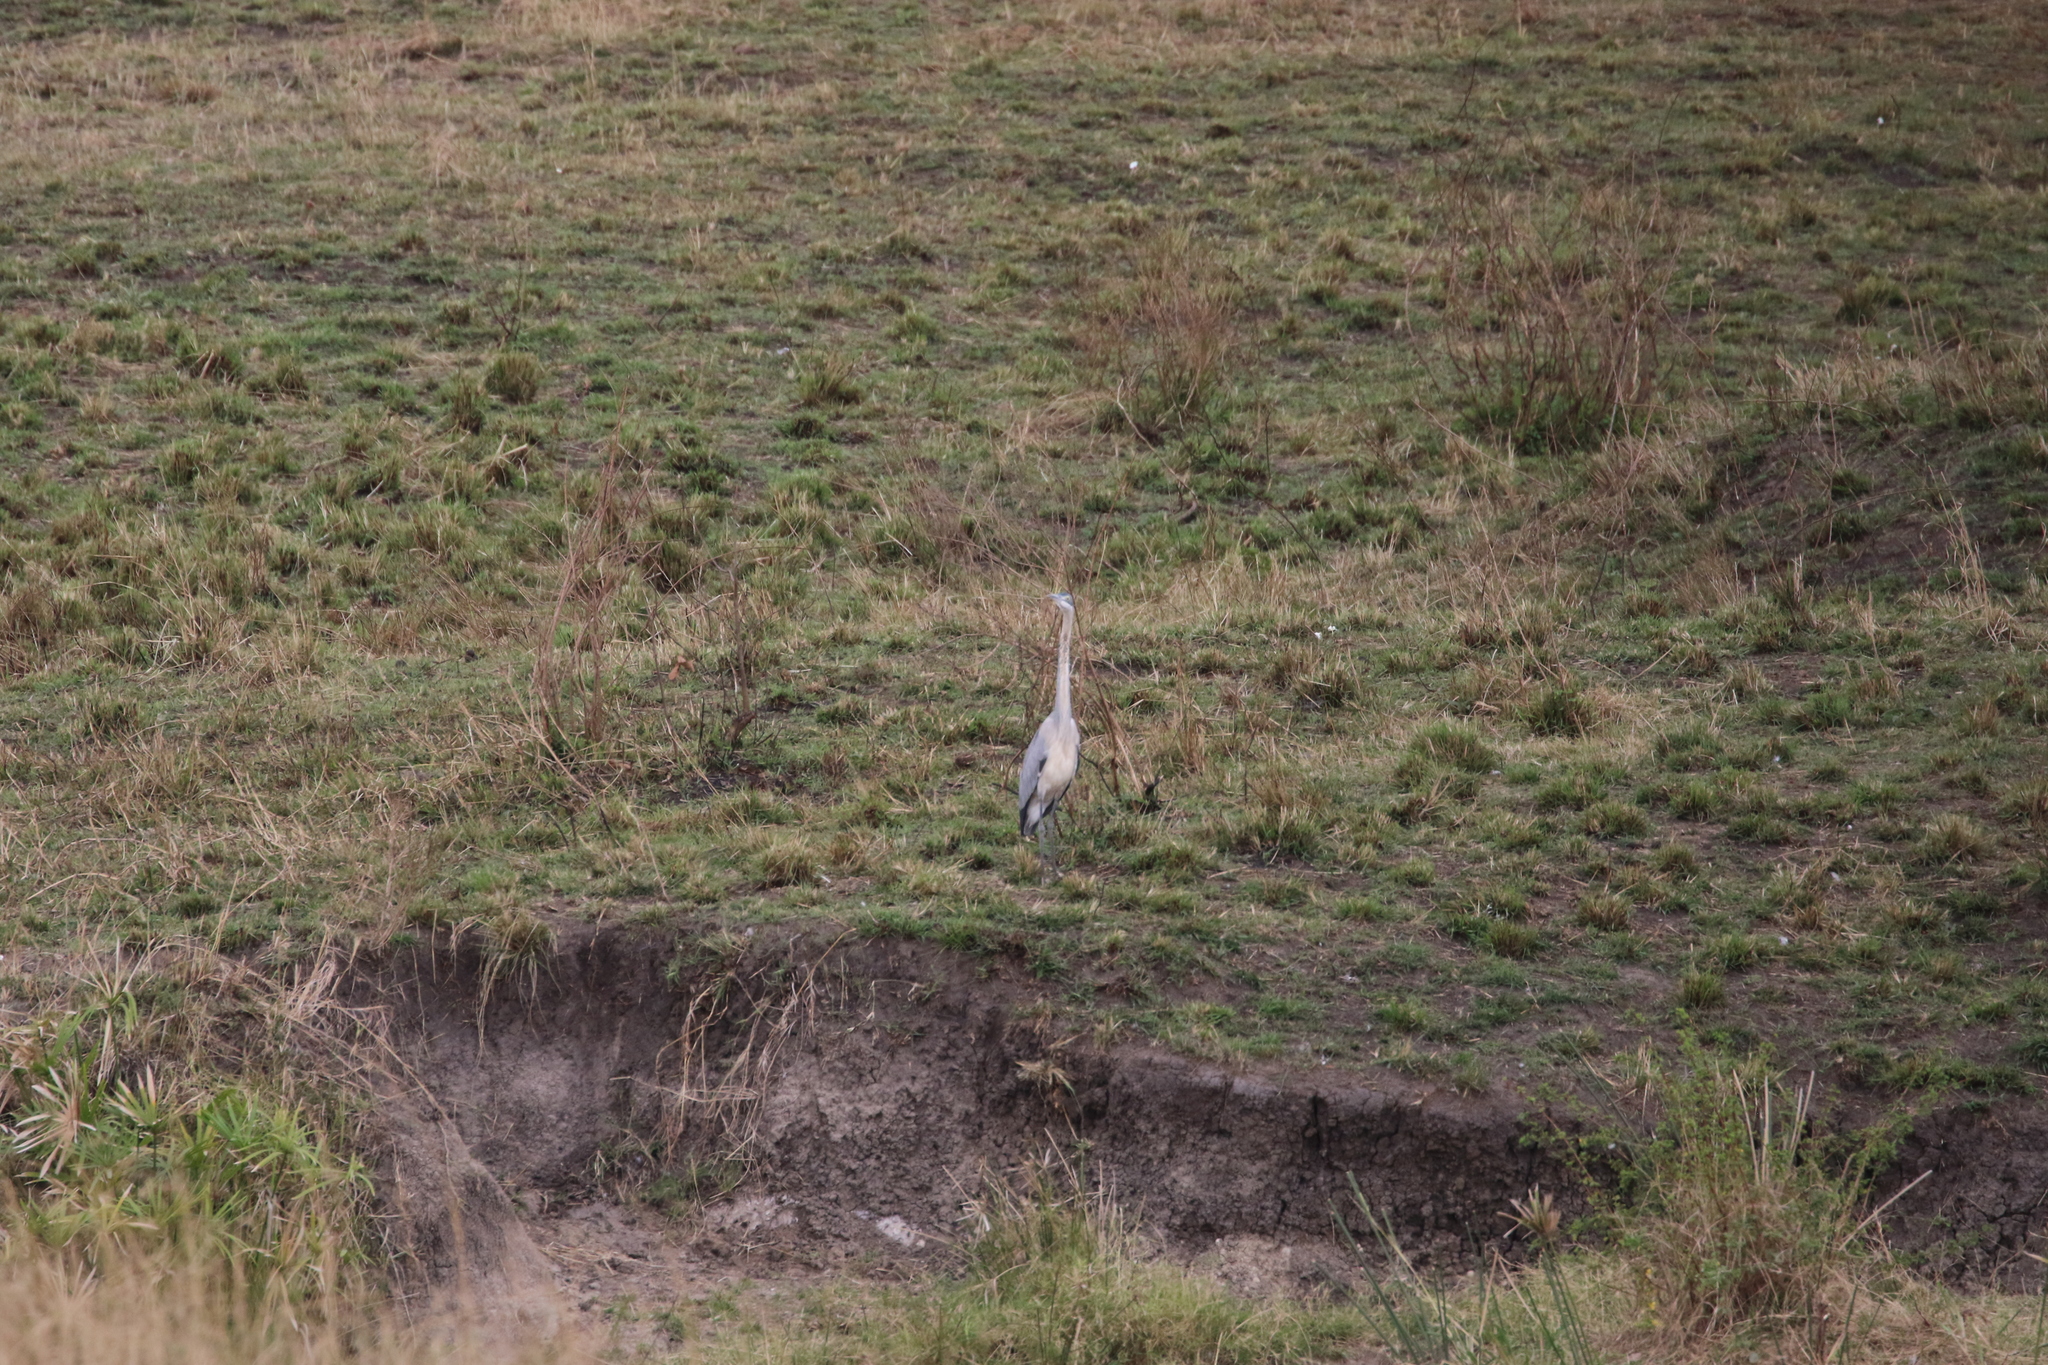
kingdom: Animalia
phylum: Chordata
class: Aves
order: Pelecaniformes
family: Ardeidae
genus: Ardea
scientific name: Ardea melanocephala
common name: Black-headed heron
